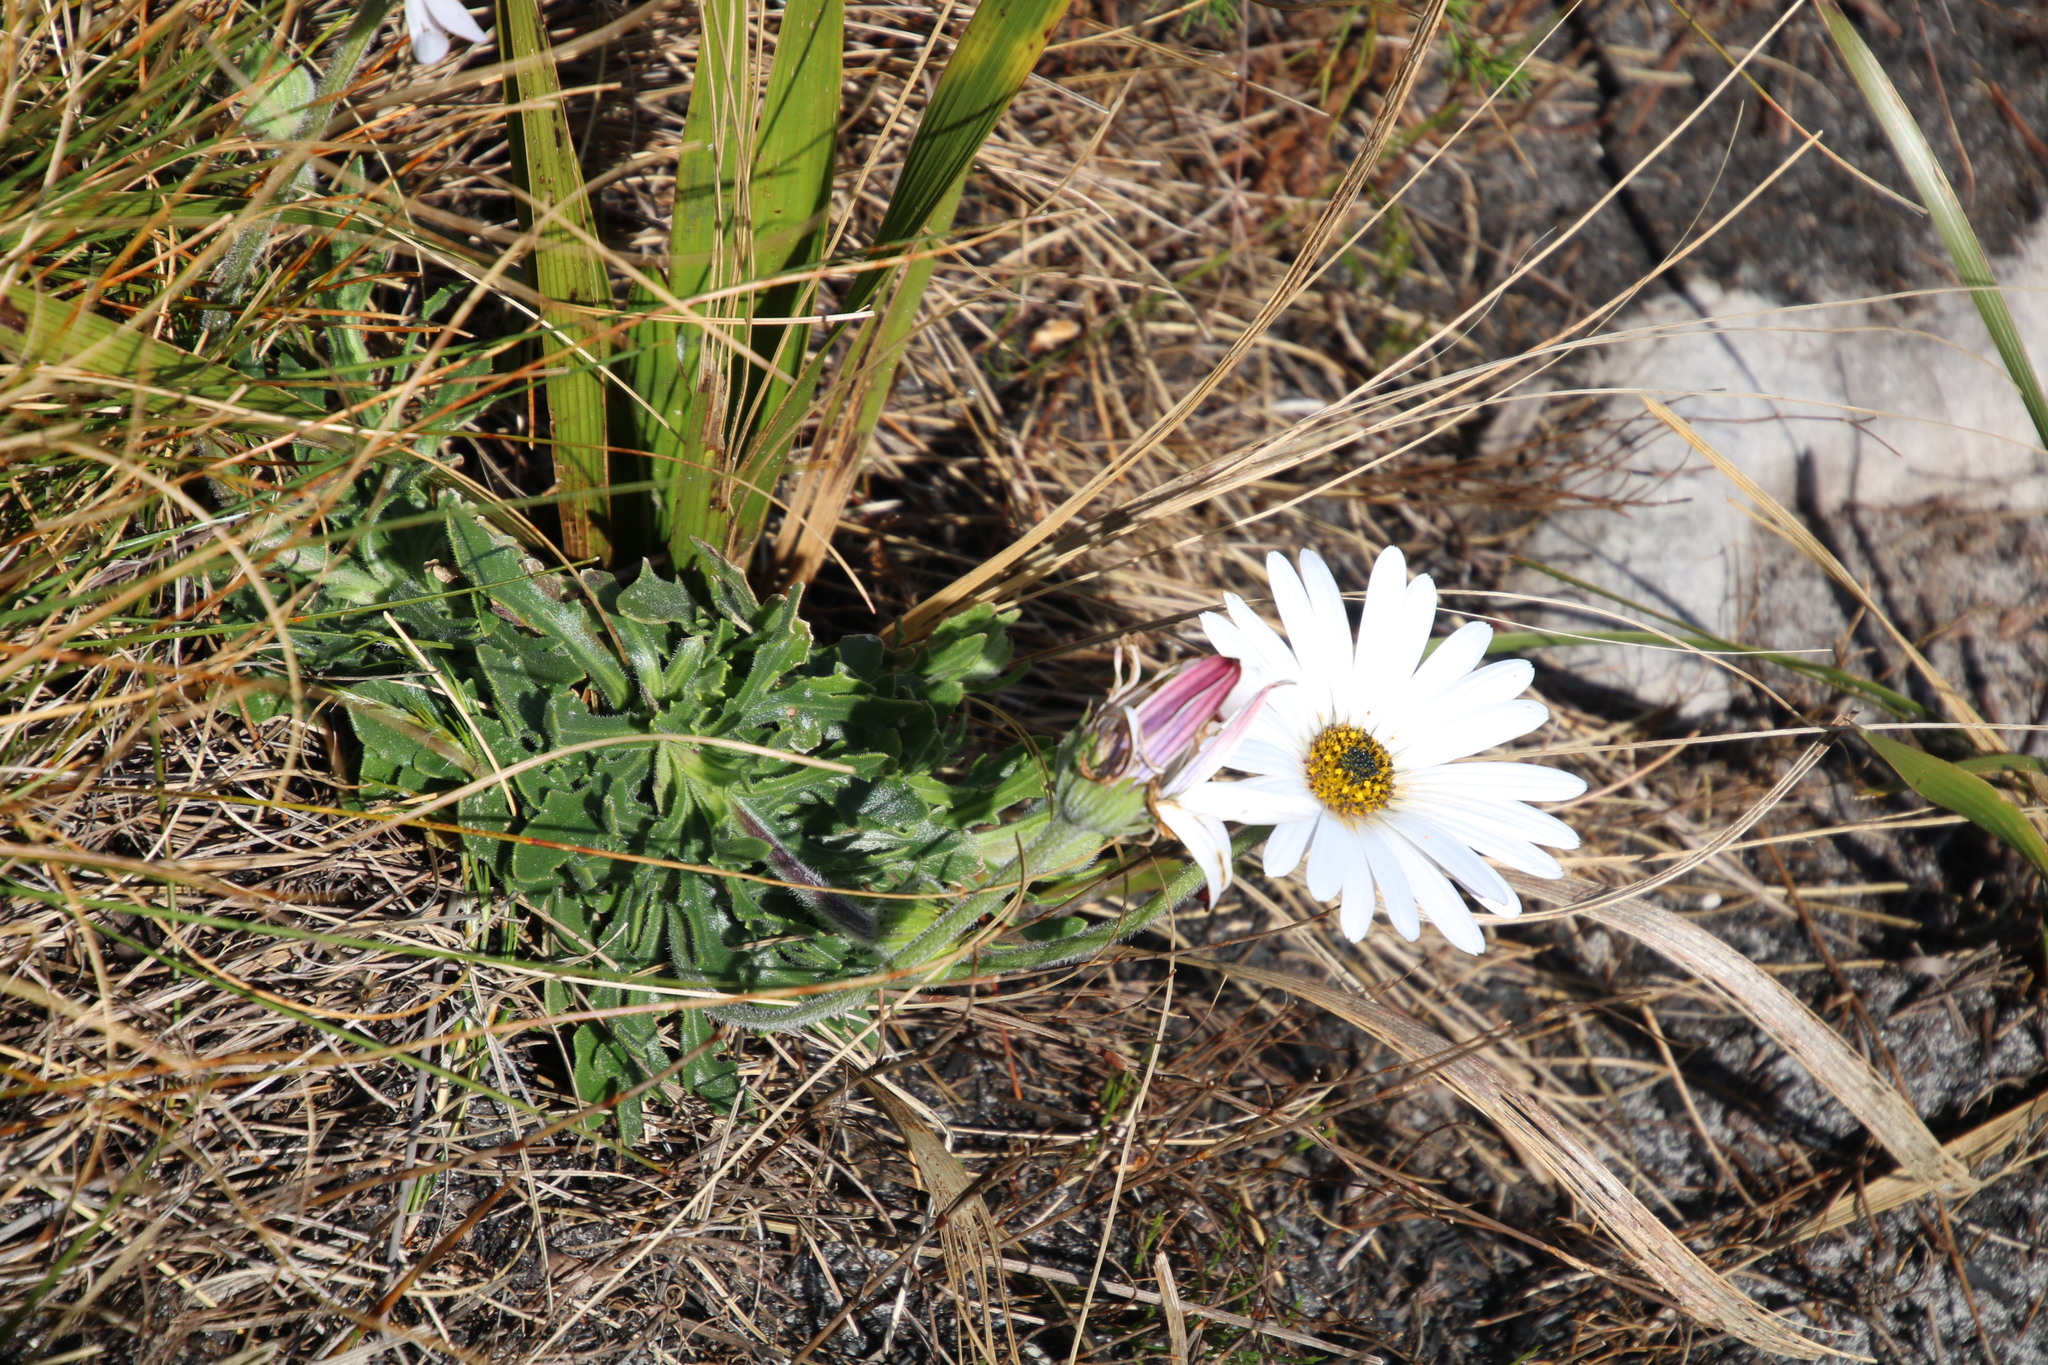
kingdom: Plantae
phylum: Tracheophyta
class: Magnoliopsida
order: Asterales
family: Asteraceae
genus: Dimorphotheca
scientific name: Dimorphotheca nudicaulis
